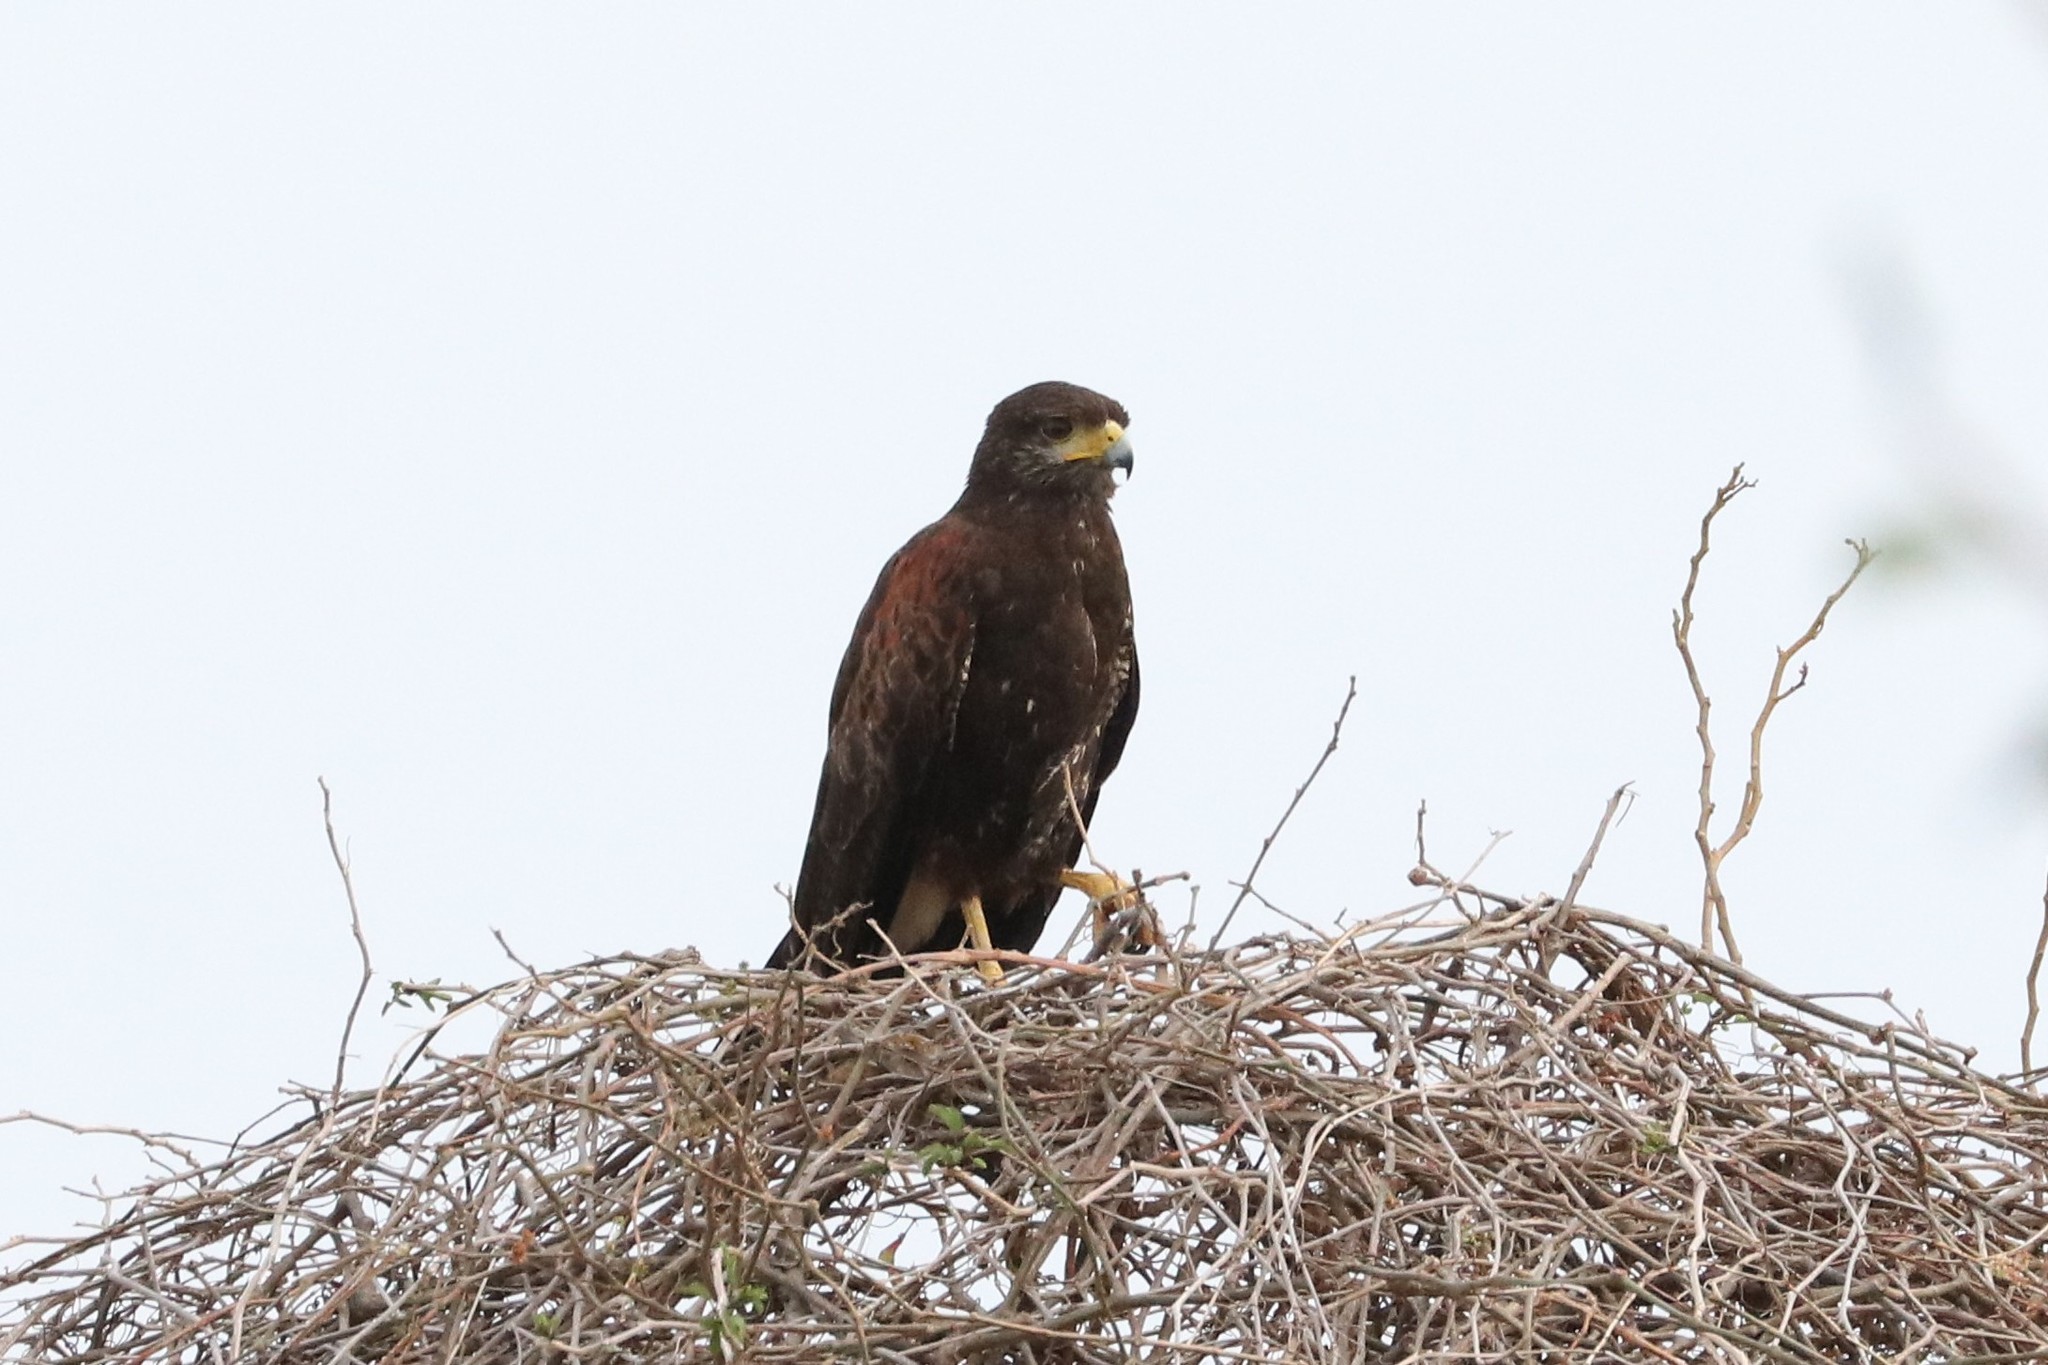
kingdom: Animalia
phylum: Chordata
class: Aves
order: Accipitriformes
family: Accipitridae
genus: Parabuteo
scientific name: Parabuteo unicinctus
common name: Harris's hawk
